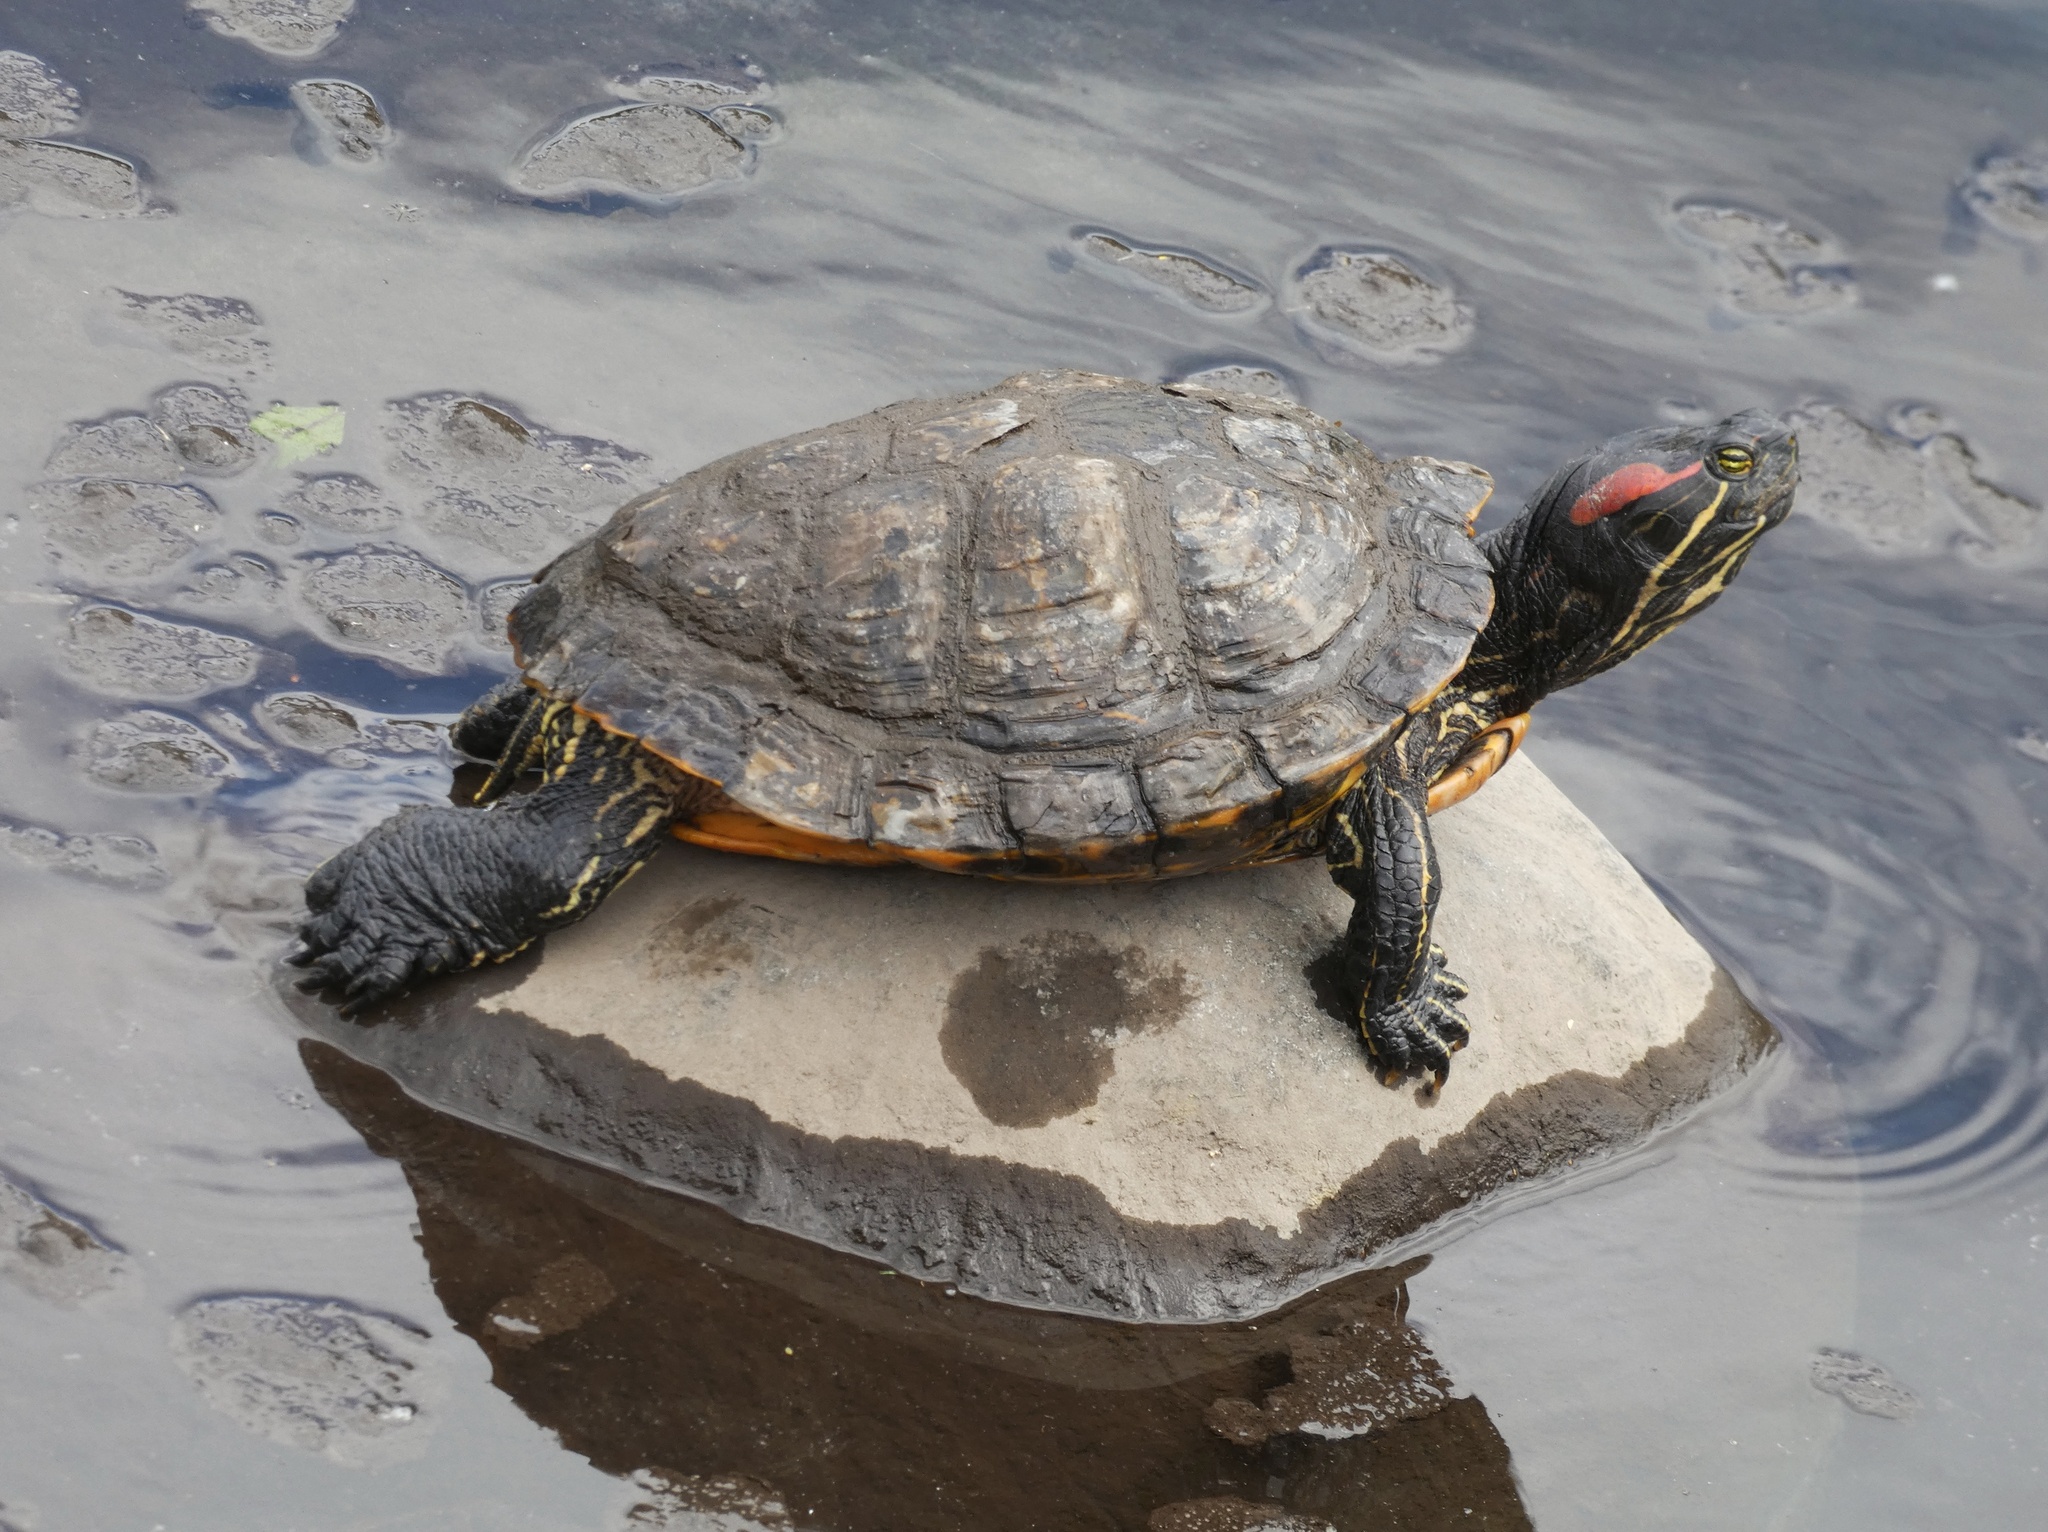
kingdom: Animalia
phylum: Chordata
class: Testudines
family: Emydidae
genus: Trachemys
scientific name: Trachemys scripta
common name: Slider
